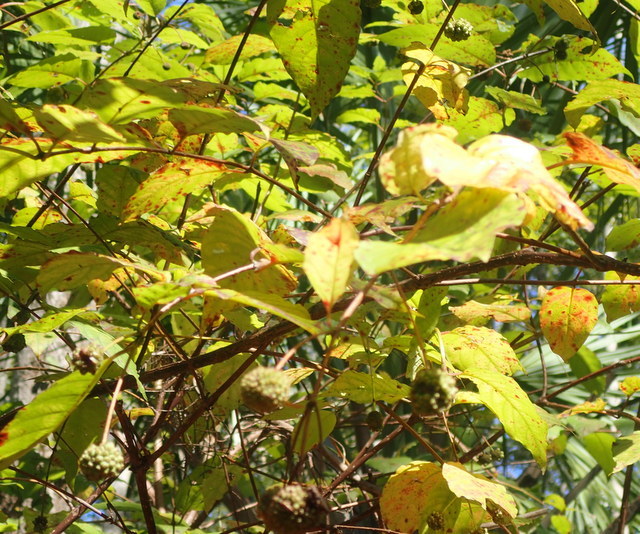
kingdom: Plantae
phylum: Tracheophyta
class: Magnoliopsida
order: Gentianales
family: Rubiaceae
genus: Cephalanthus
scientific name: Cephalanthus occidentalis
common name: Button-willow
